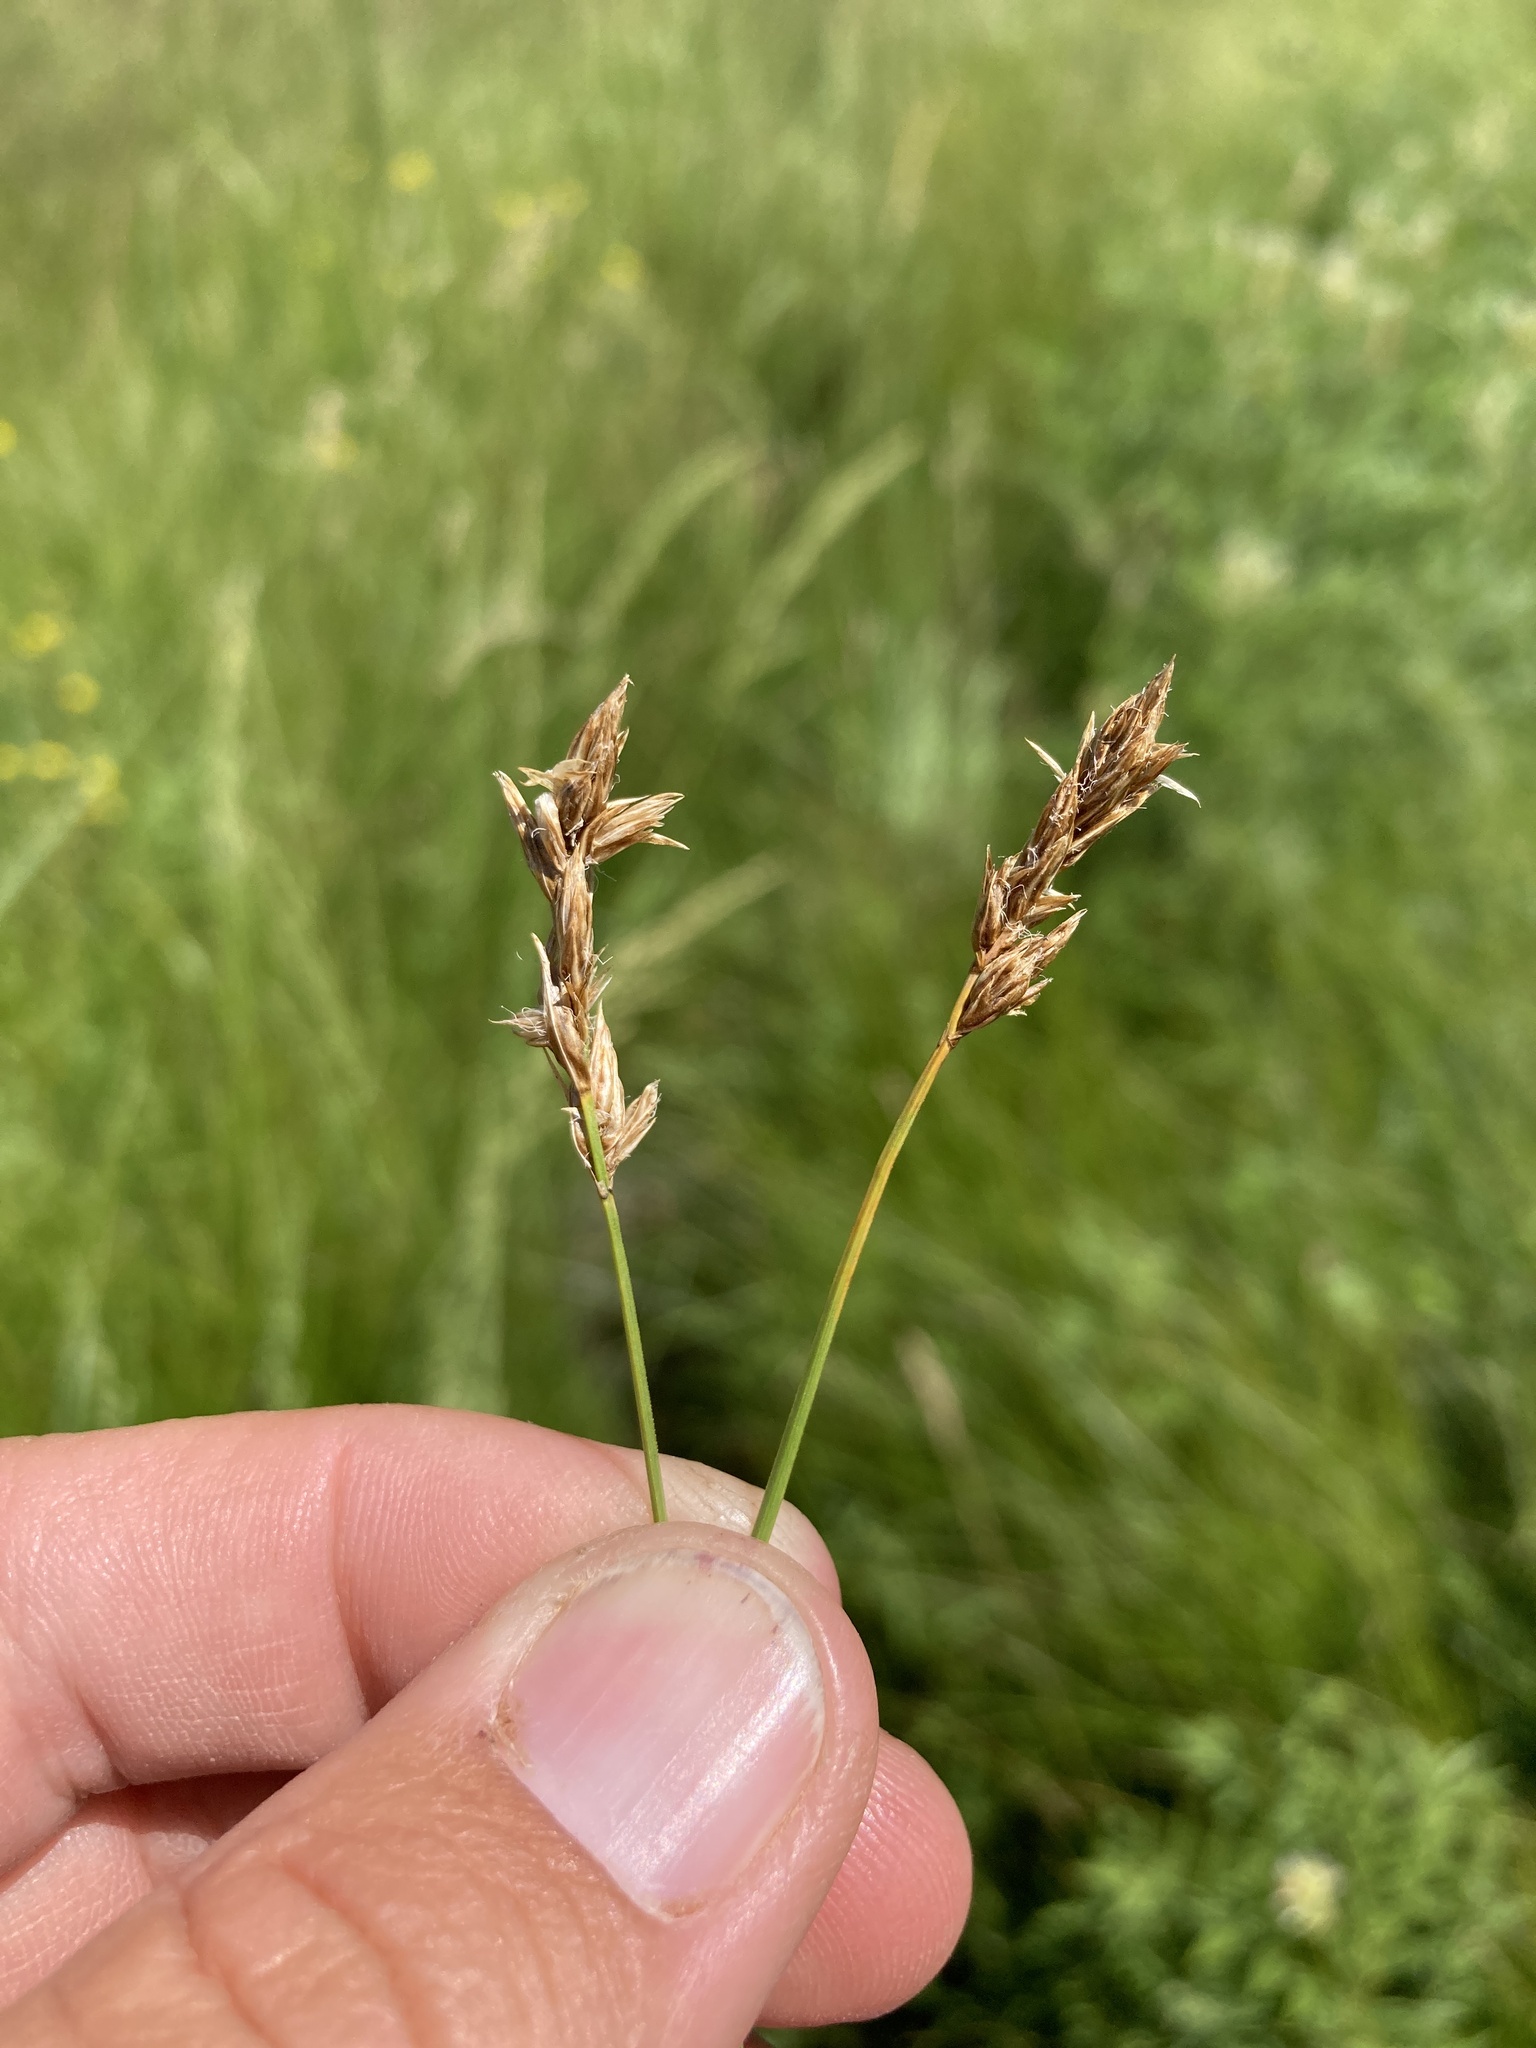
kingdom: Plantae
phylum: Tracheophyta
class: Liliopsida
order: Poales
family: Cyperaceae
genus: Carex
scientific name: Carex praegracilis
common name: Black creeper sedge
